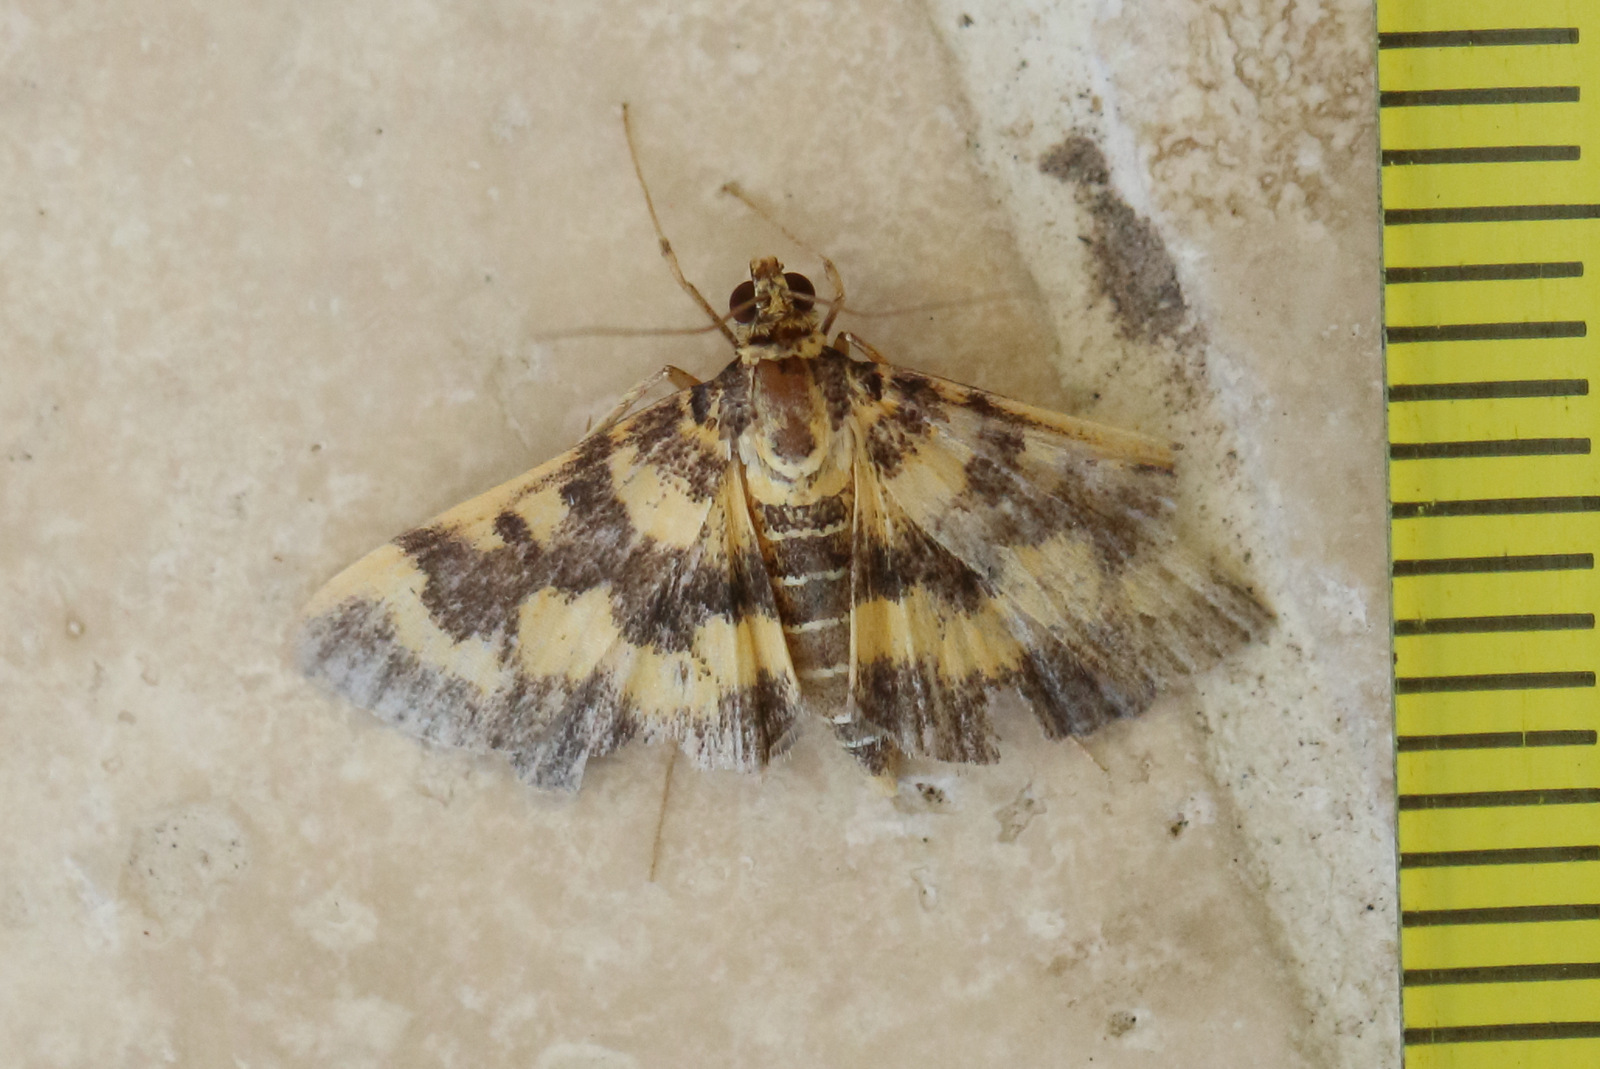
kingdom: Animalia
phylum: Arthropoda
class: Insecta
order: Lepidoptera
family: Crambidae
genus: Omiodes
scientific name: Omiodes diemenalis
